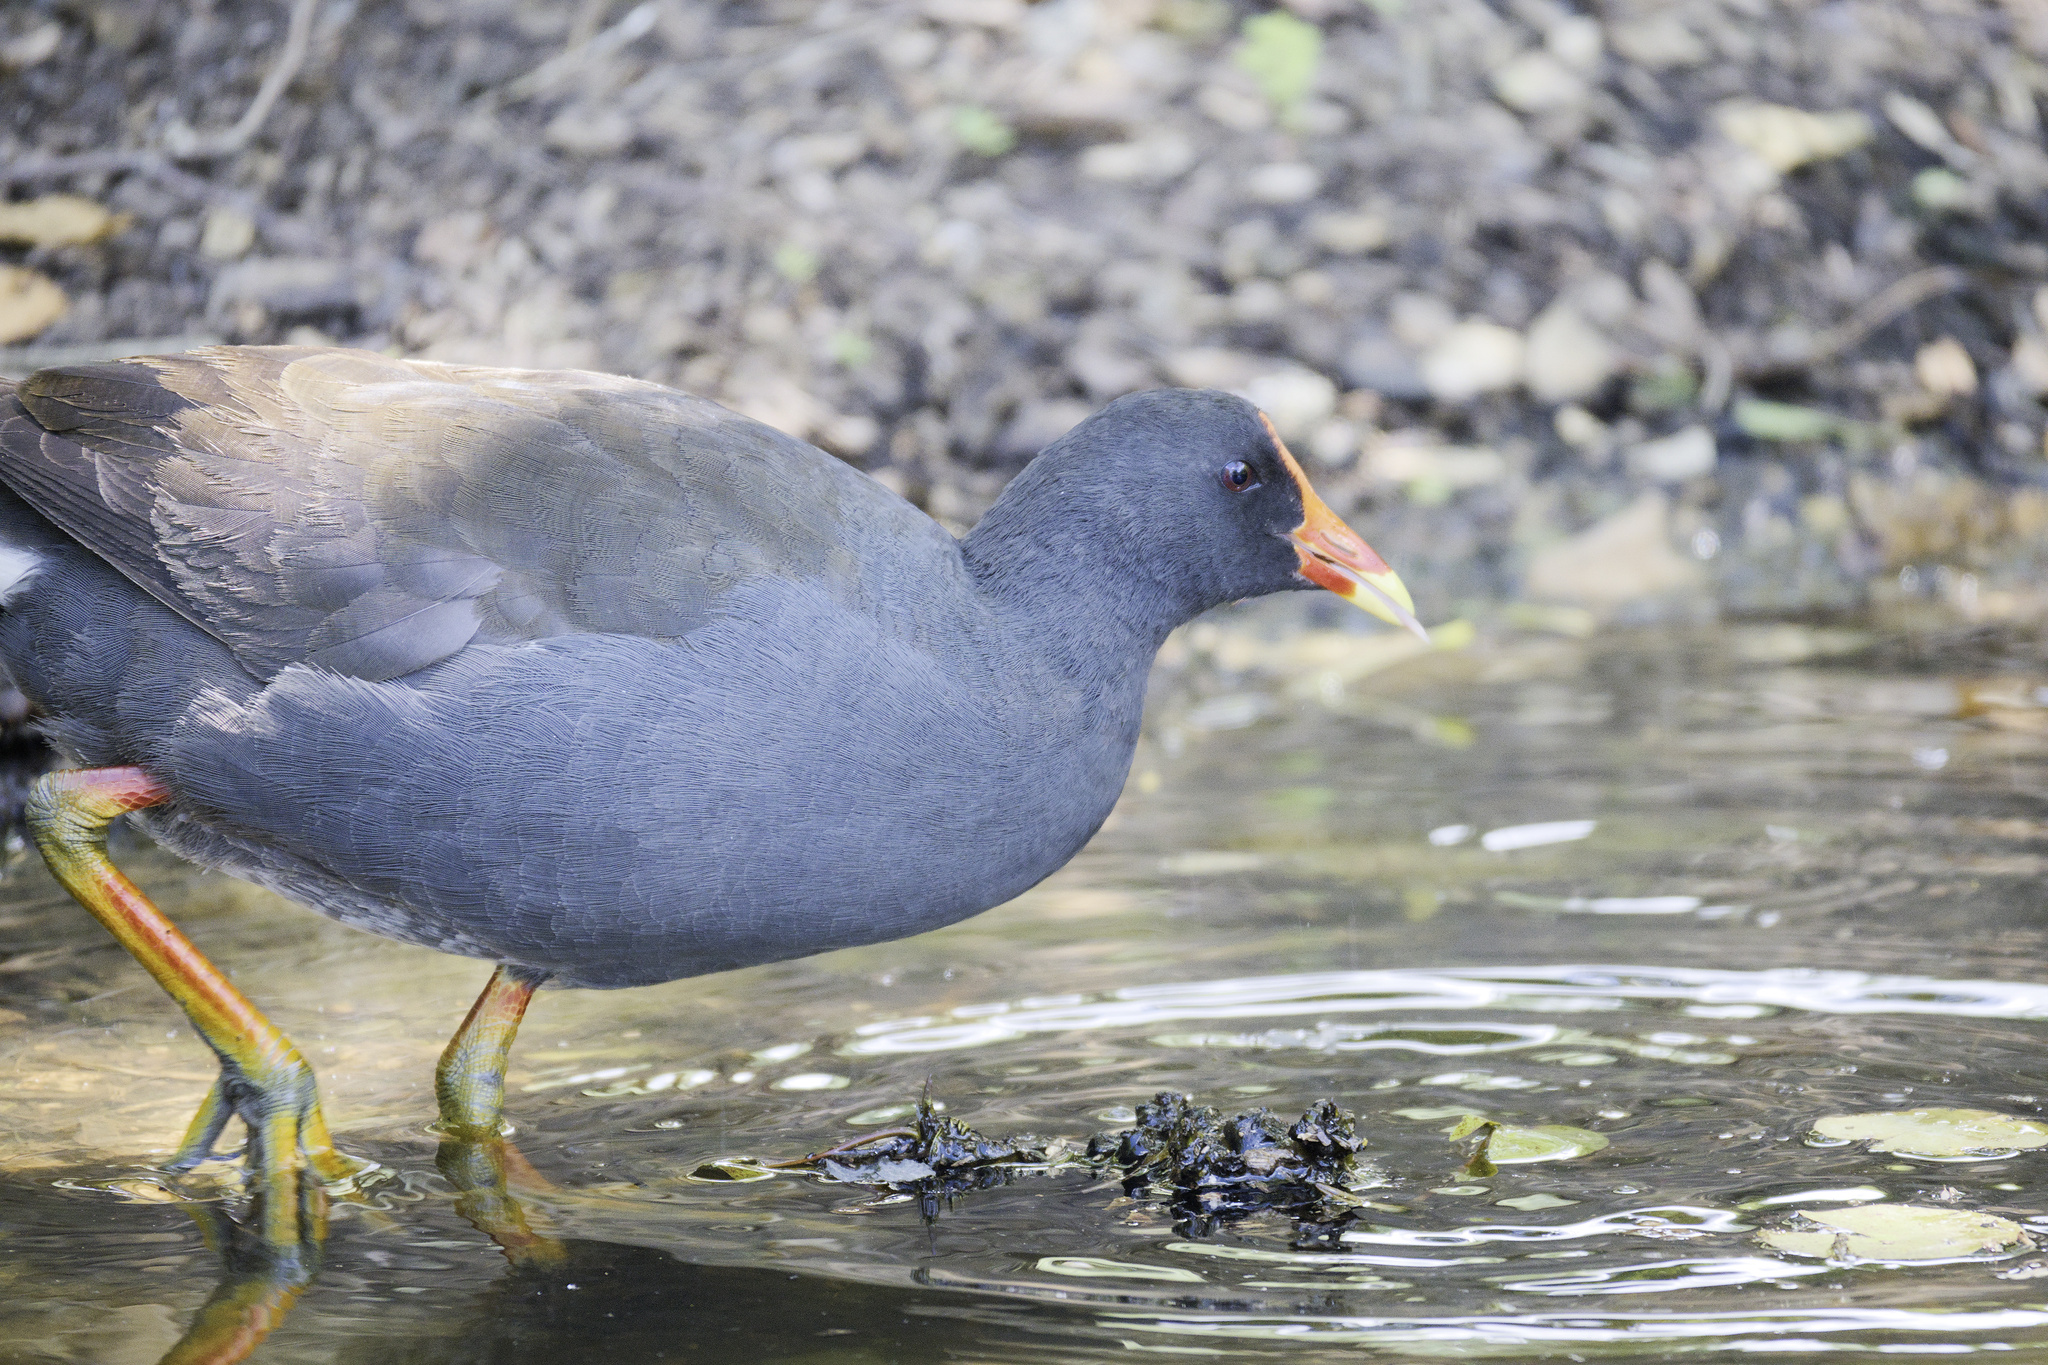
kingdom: Animalia
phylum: Chordata
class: Aves
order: Gruiformes
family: Rallidae
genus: Gallinula
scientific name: Gallinula tenebrosa
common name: Dusky moorhen
